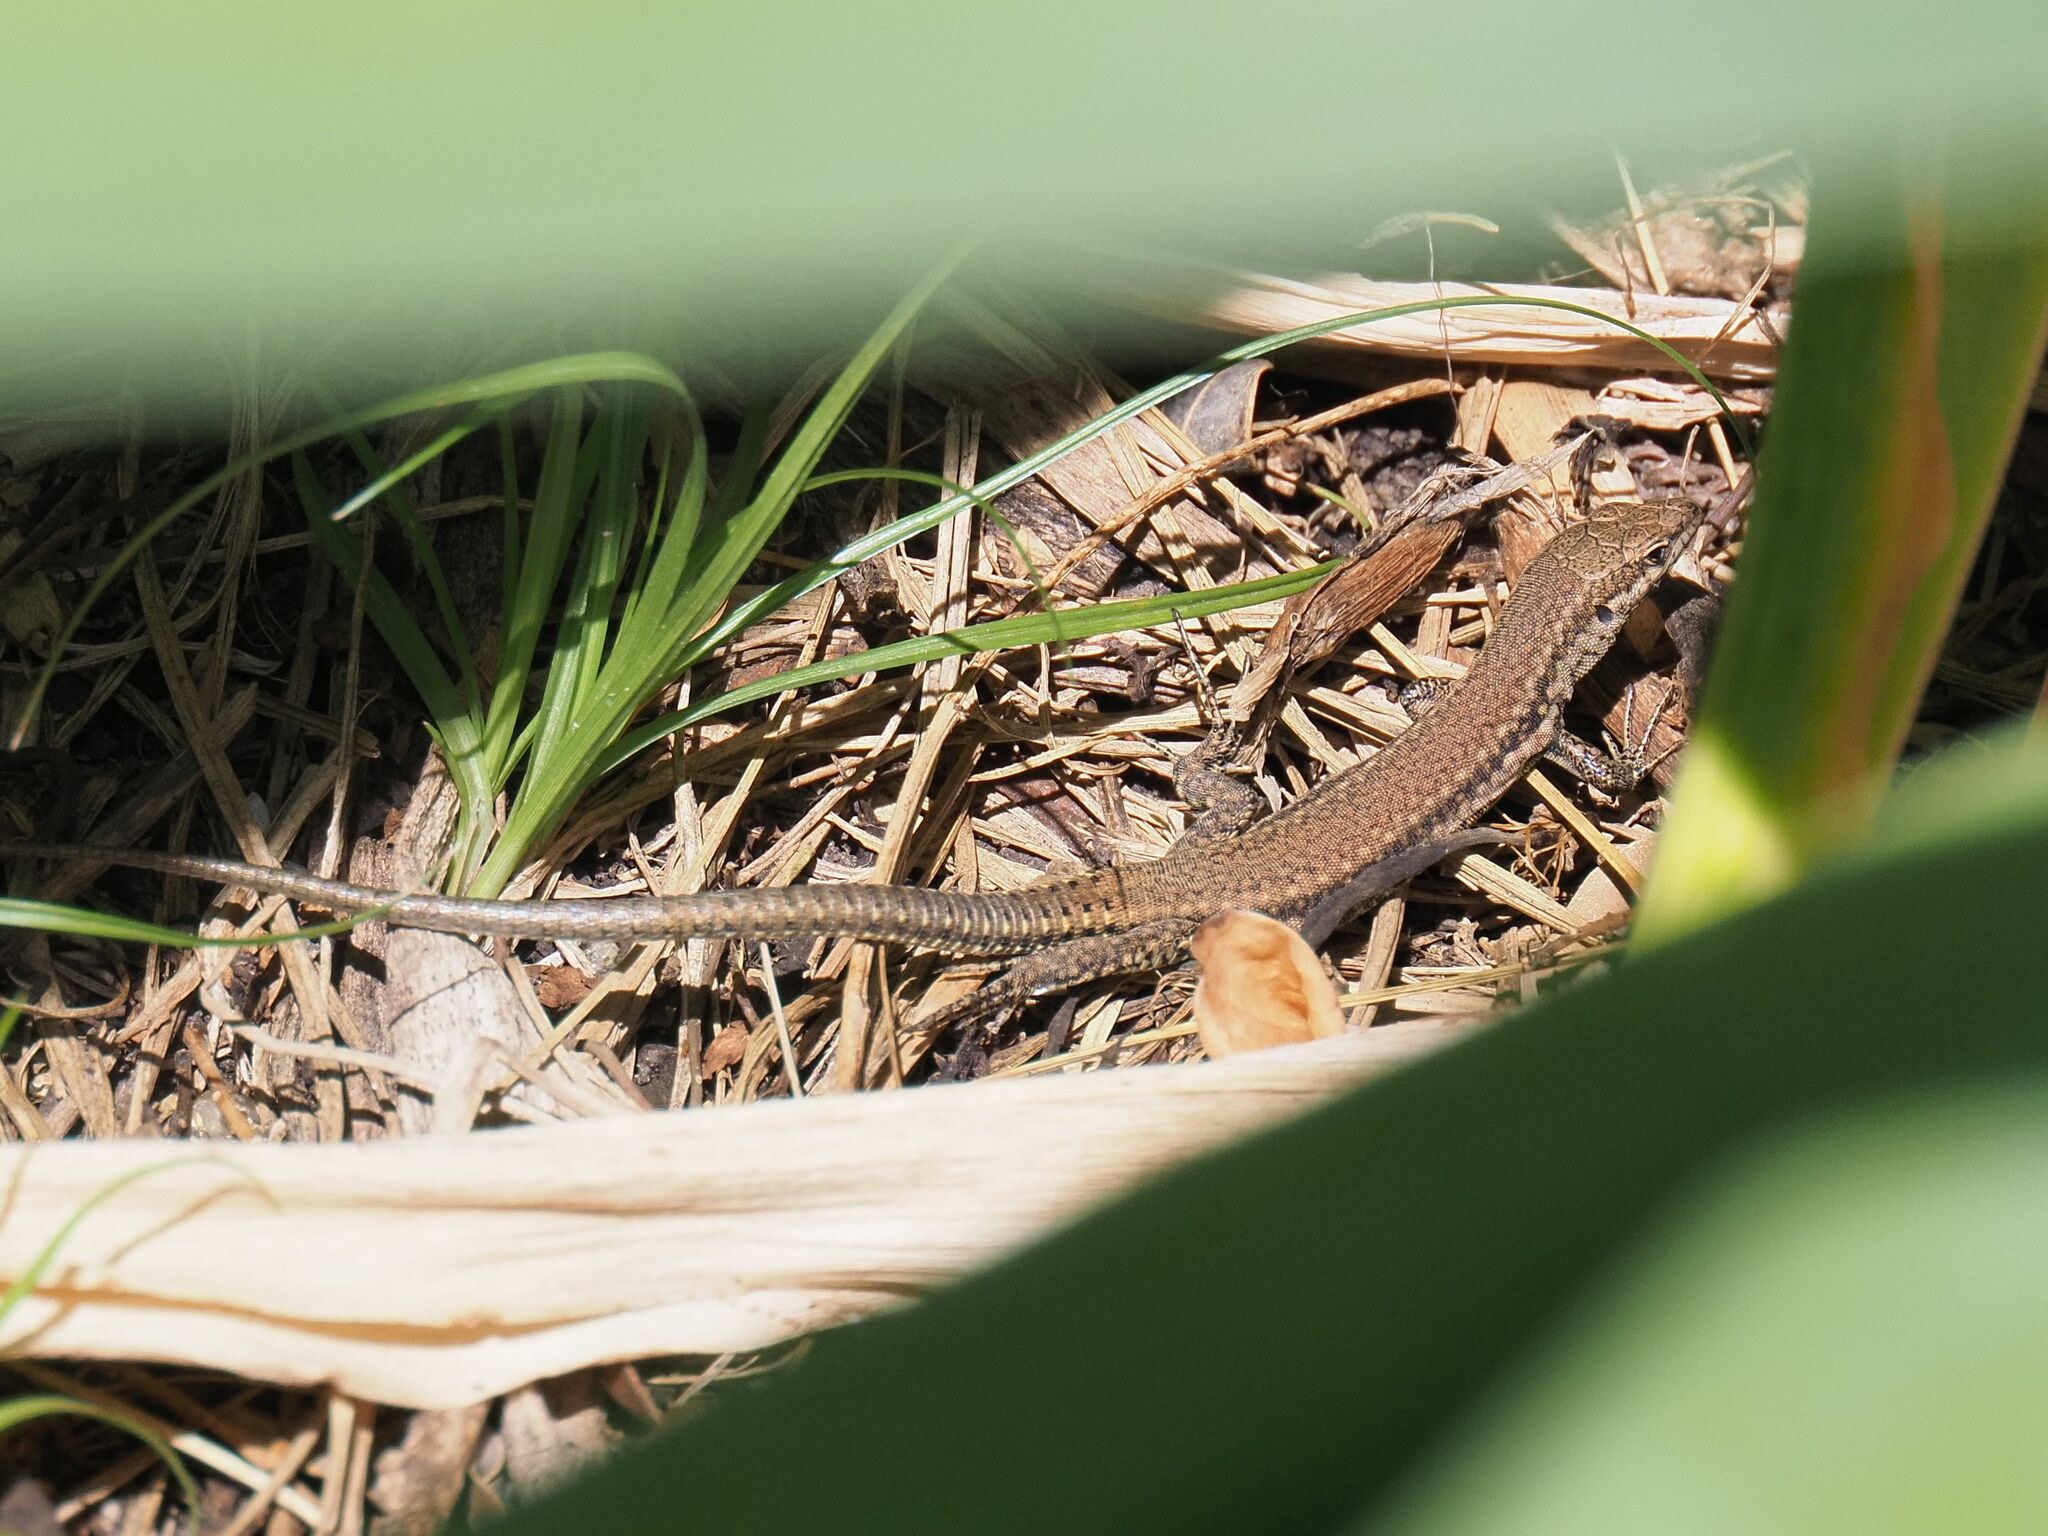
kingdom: Animalia
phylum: Chordata
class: Squamata
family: Lacertidae
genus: Podarcis
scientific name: Podarcis virescens
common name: Geniez’s wall lizard
